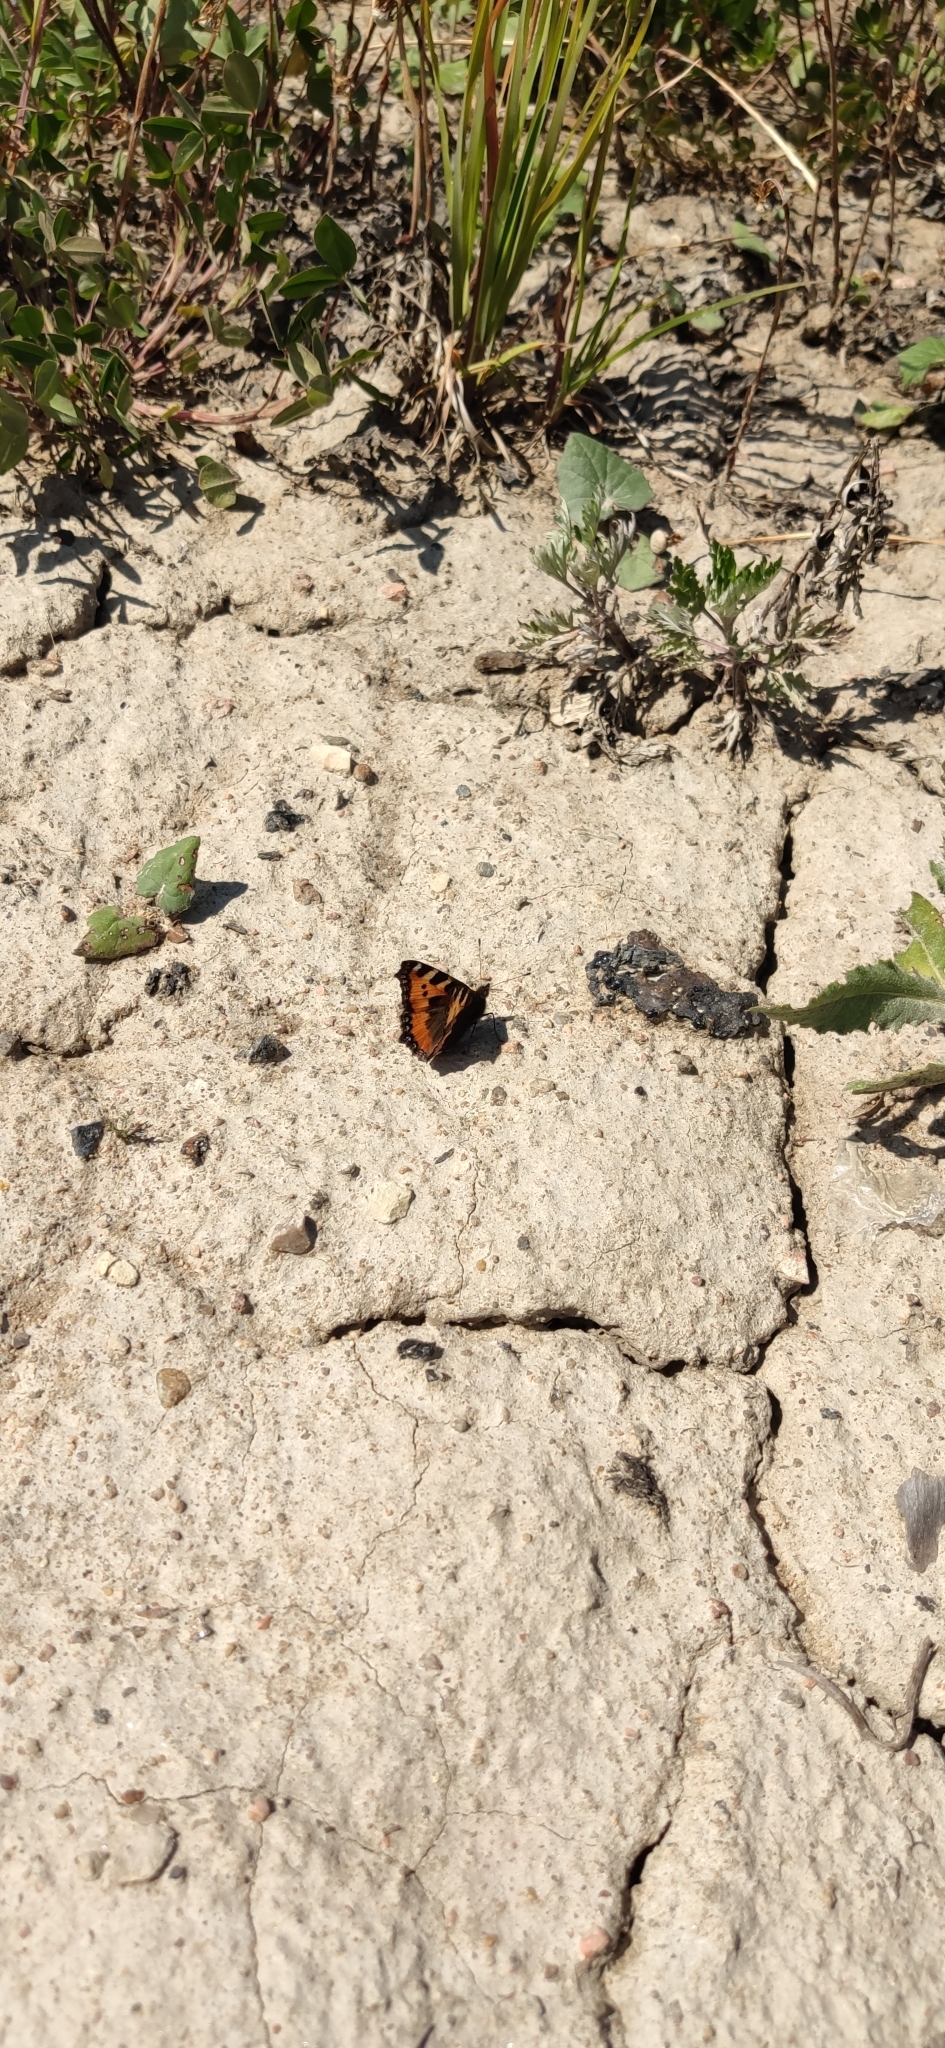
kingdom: Animalia
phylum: Arthropoda
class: Insecta
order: Lepidoptera
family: Nymphalidae
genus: Aglais
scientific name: Aglais urticae
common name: Small tortoiseshell
